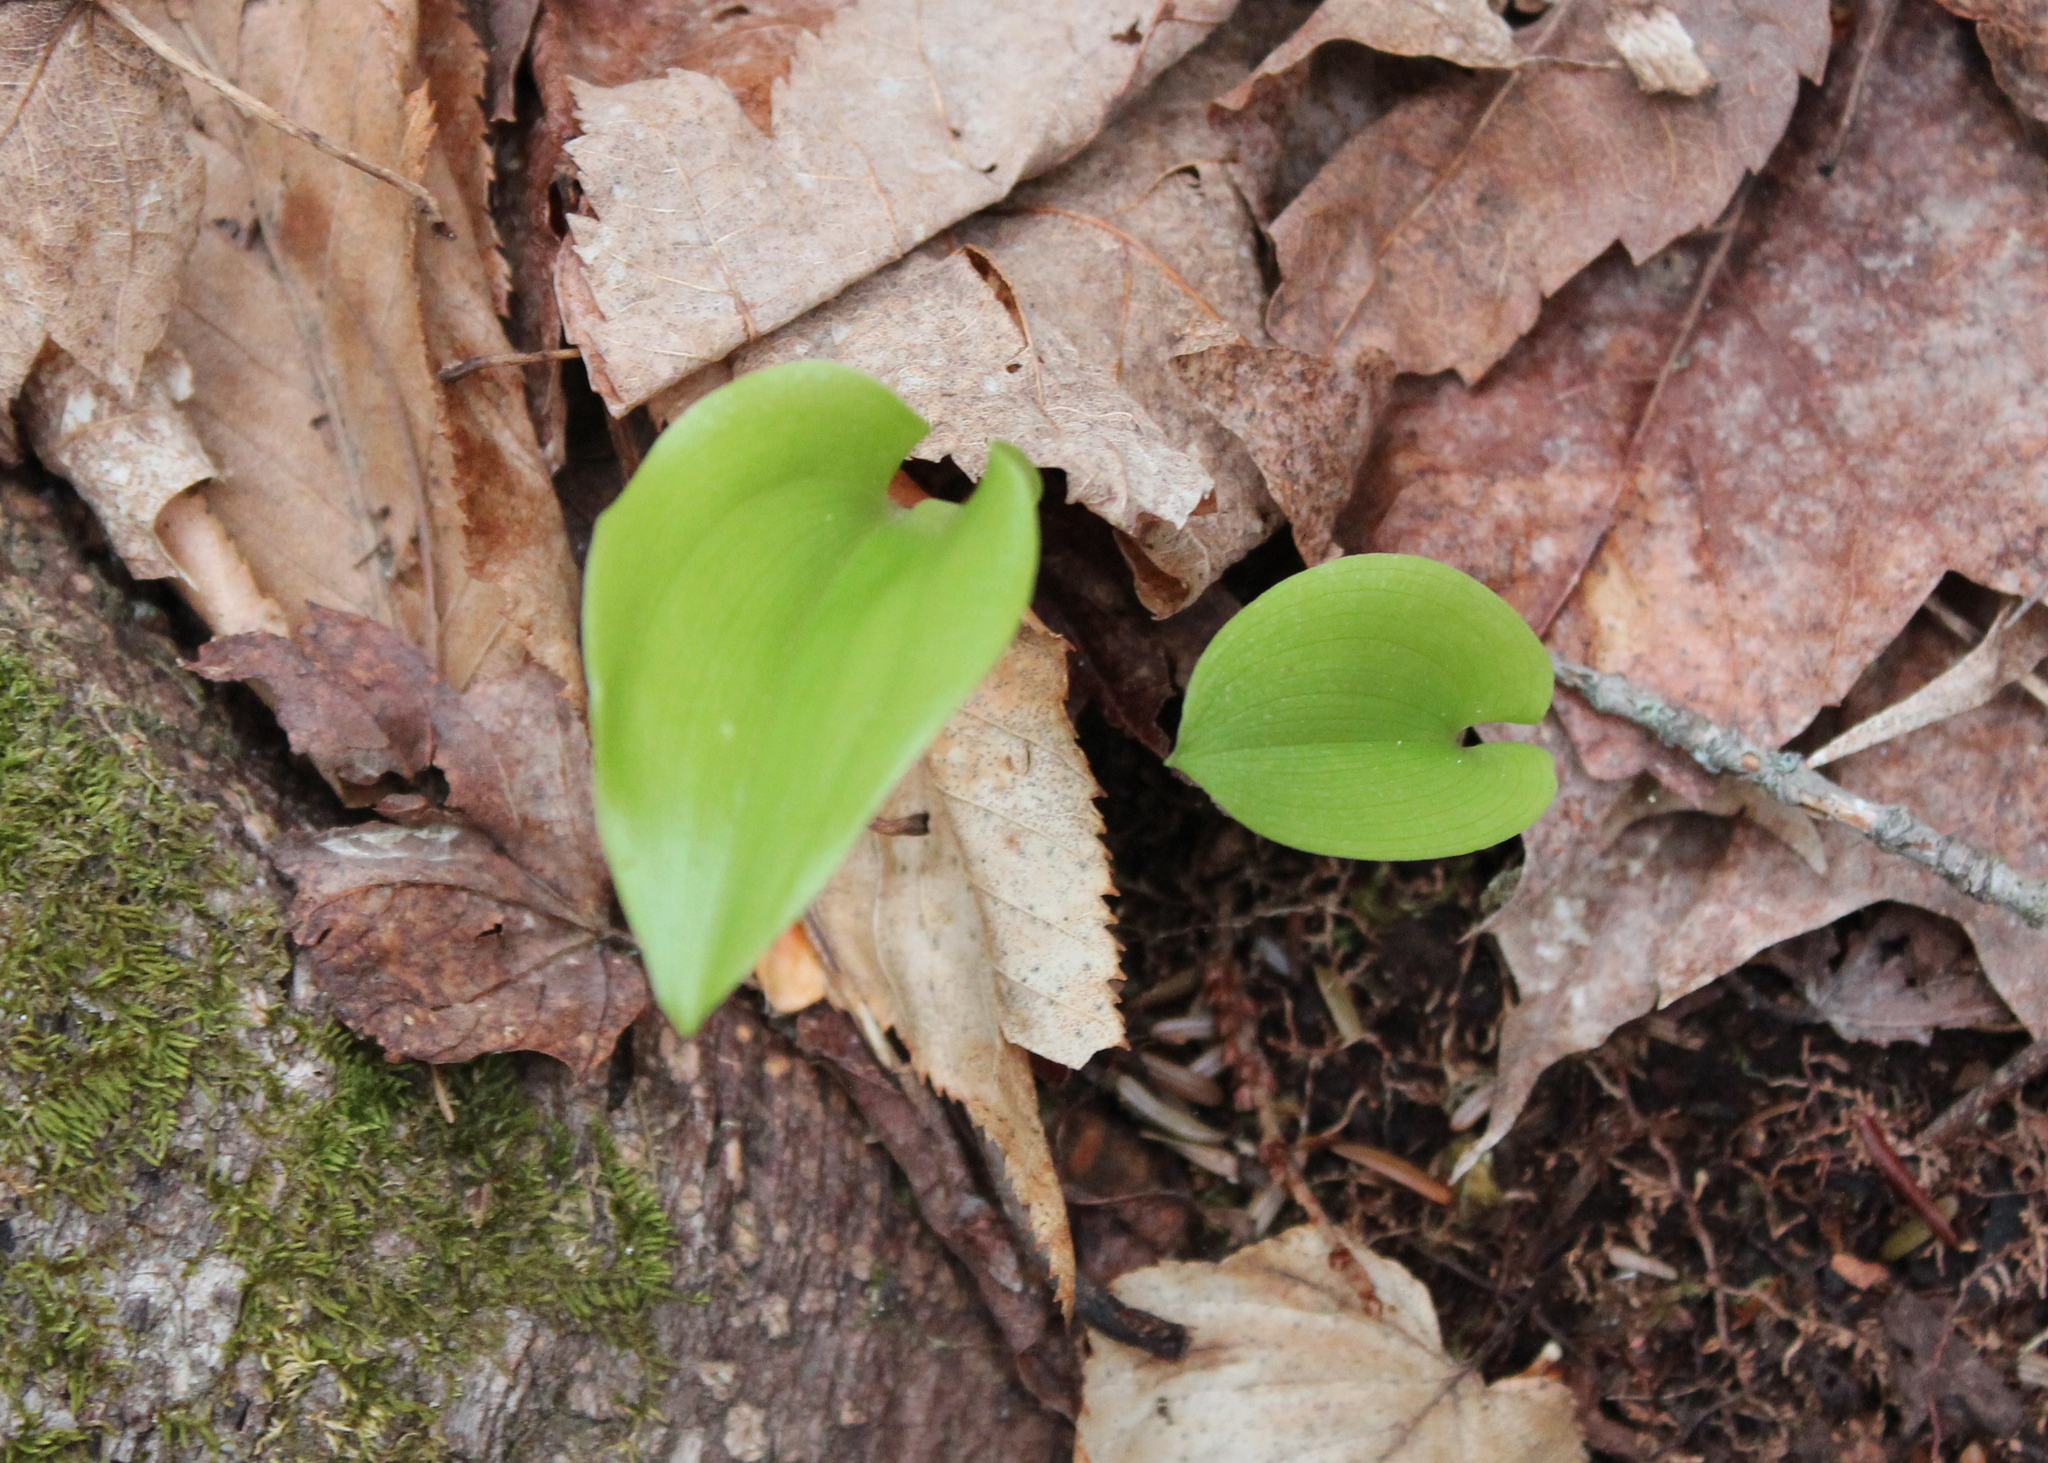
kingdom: Plantae
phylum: Tracheophyta
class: Liliopsida
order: Asparagales
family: Asparagaceae
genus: Maianthemum
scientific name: Maianthemum canadense
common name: False lily-of-the-valley
